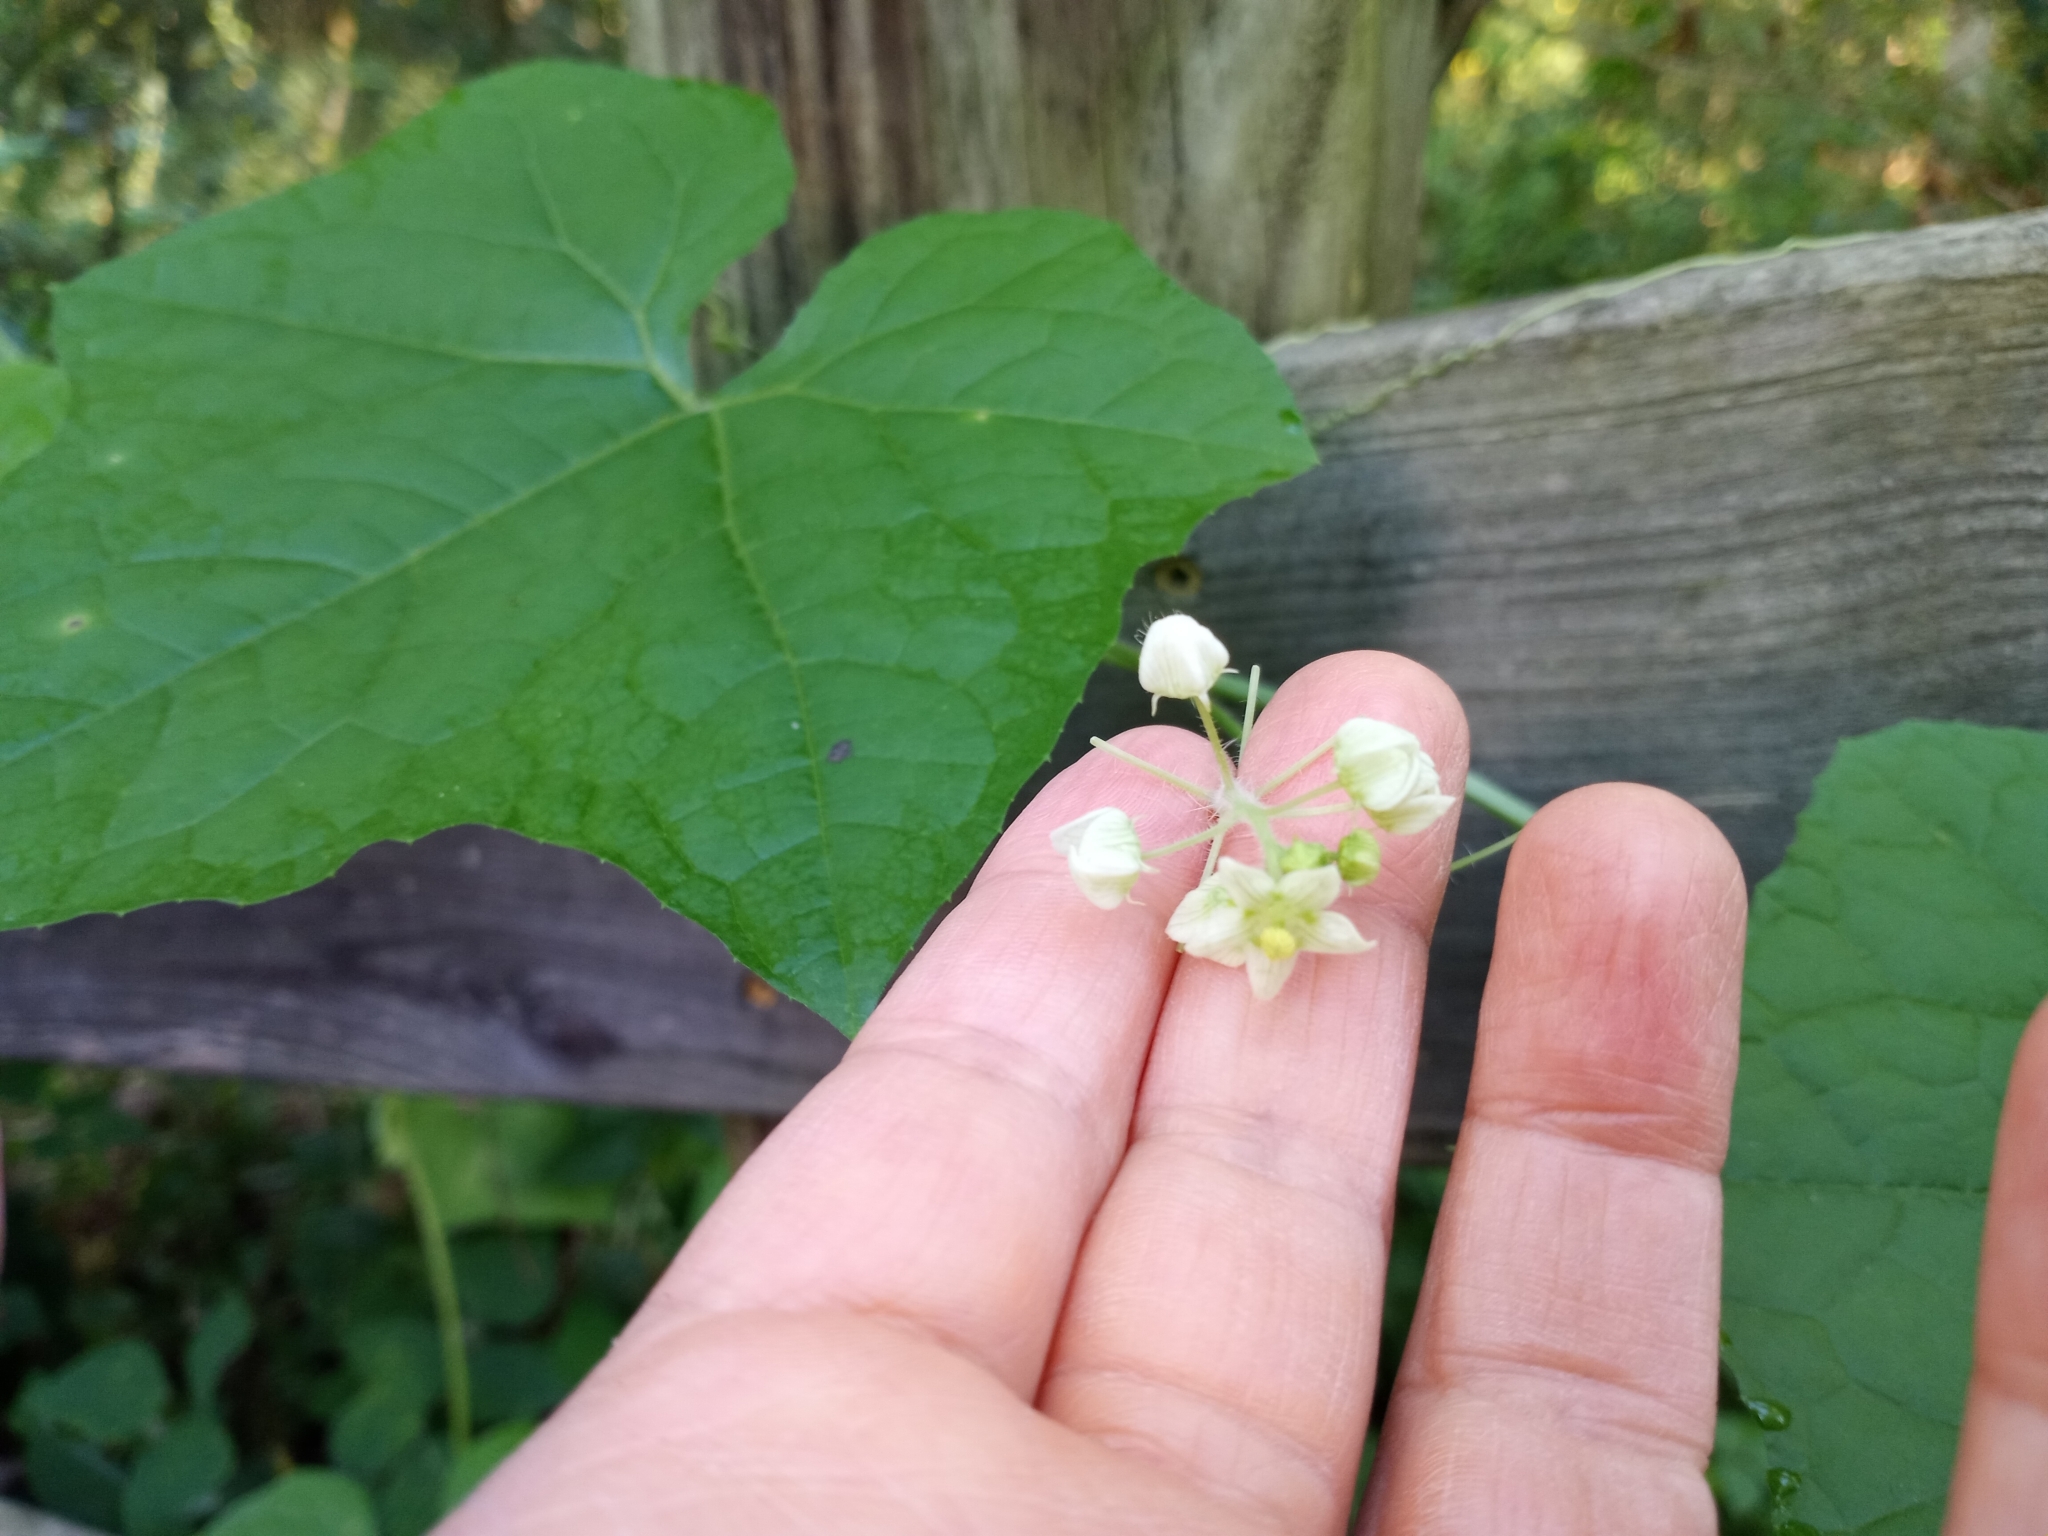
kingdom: Plantae
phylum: Tracheophyta
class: Magnoliopsida
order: Cucurbitales
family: Cucurbitaceae
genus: Sicyos
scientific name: Sicyos angulatus
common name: Angled burr cucumber
